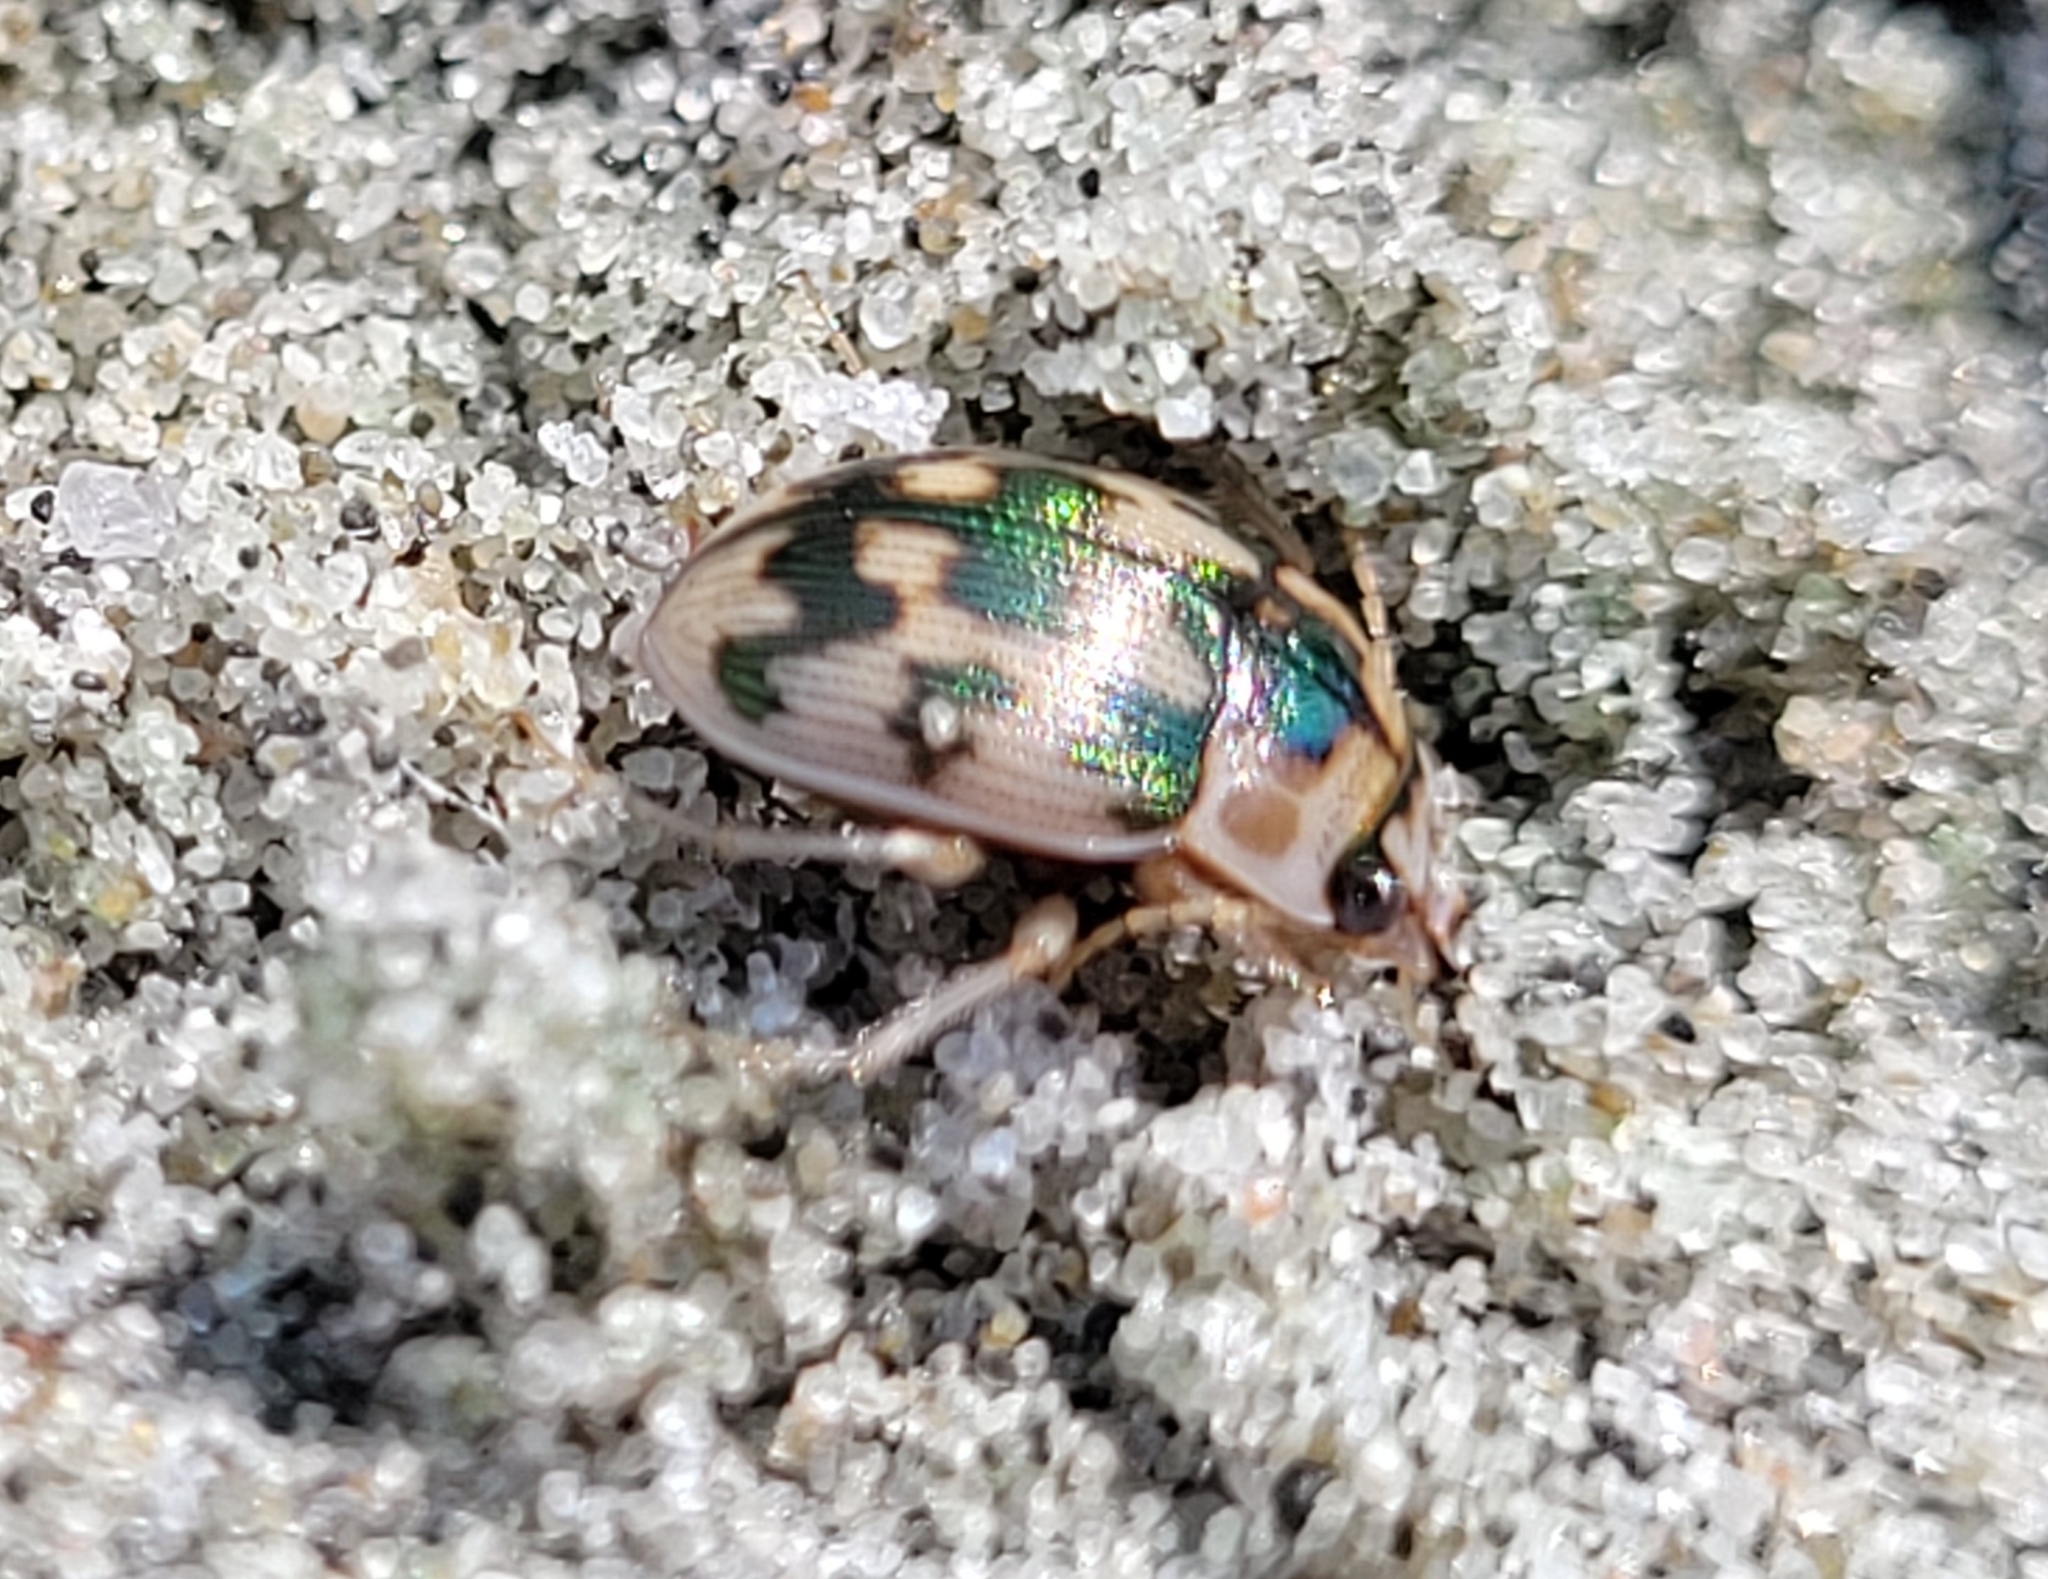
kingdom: Animalia
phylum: Arthropoda
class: Insecta
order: Coleoptera
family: Carabidae
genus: Omophron
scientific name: Omophron tessellatum
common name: Mosaic round sand beetle
